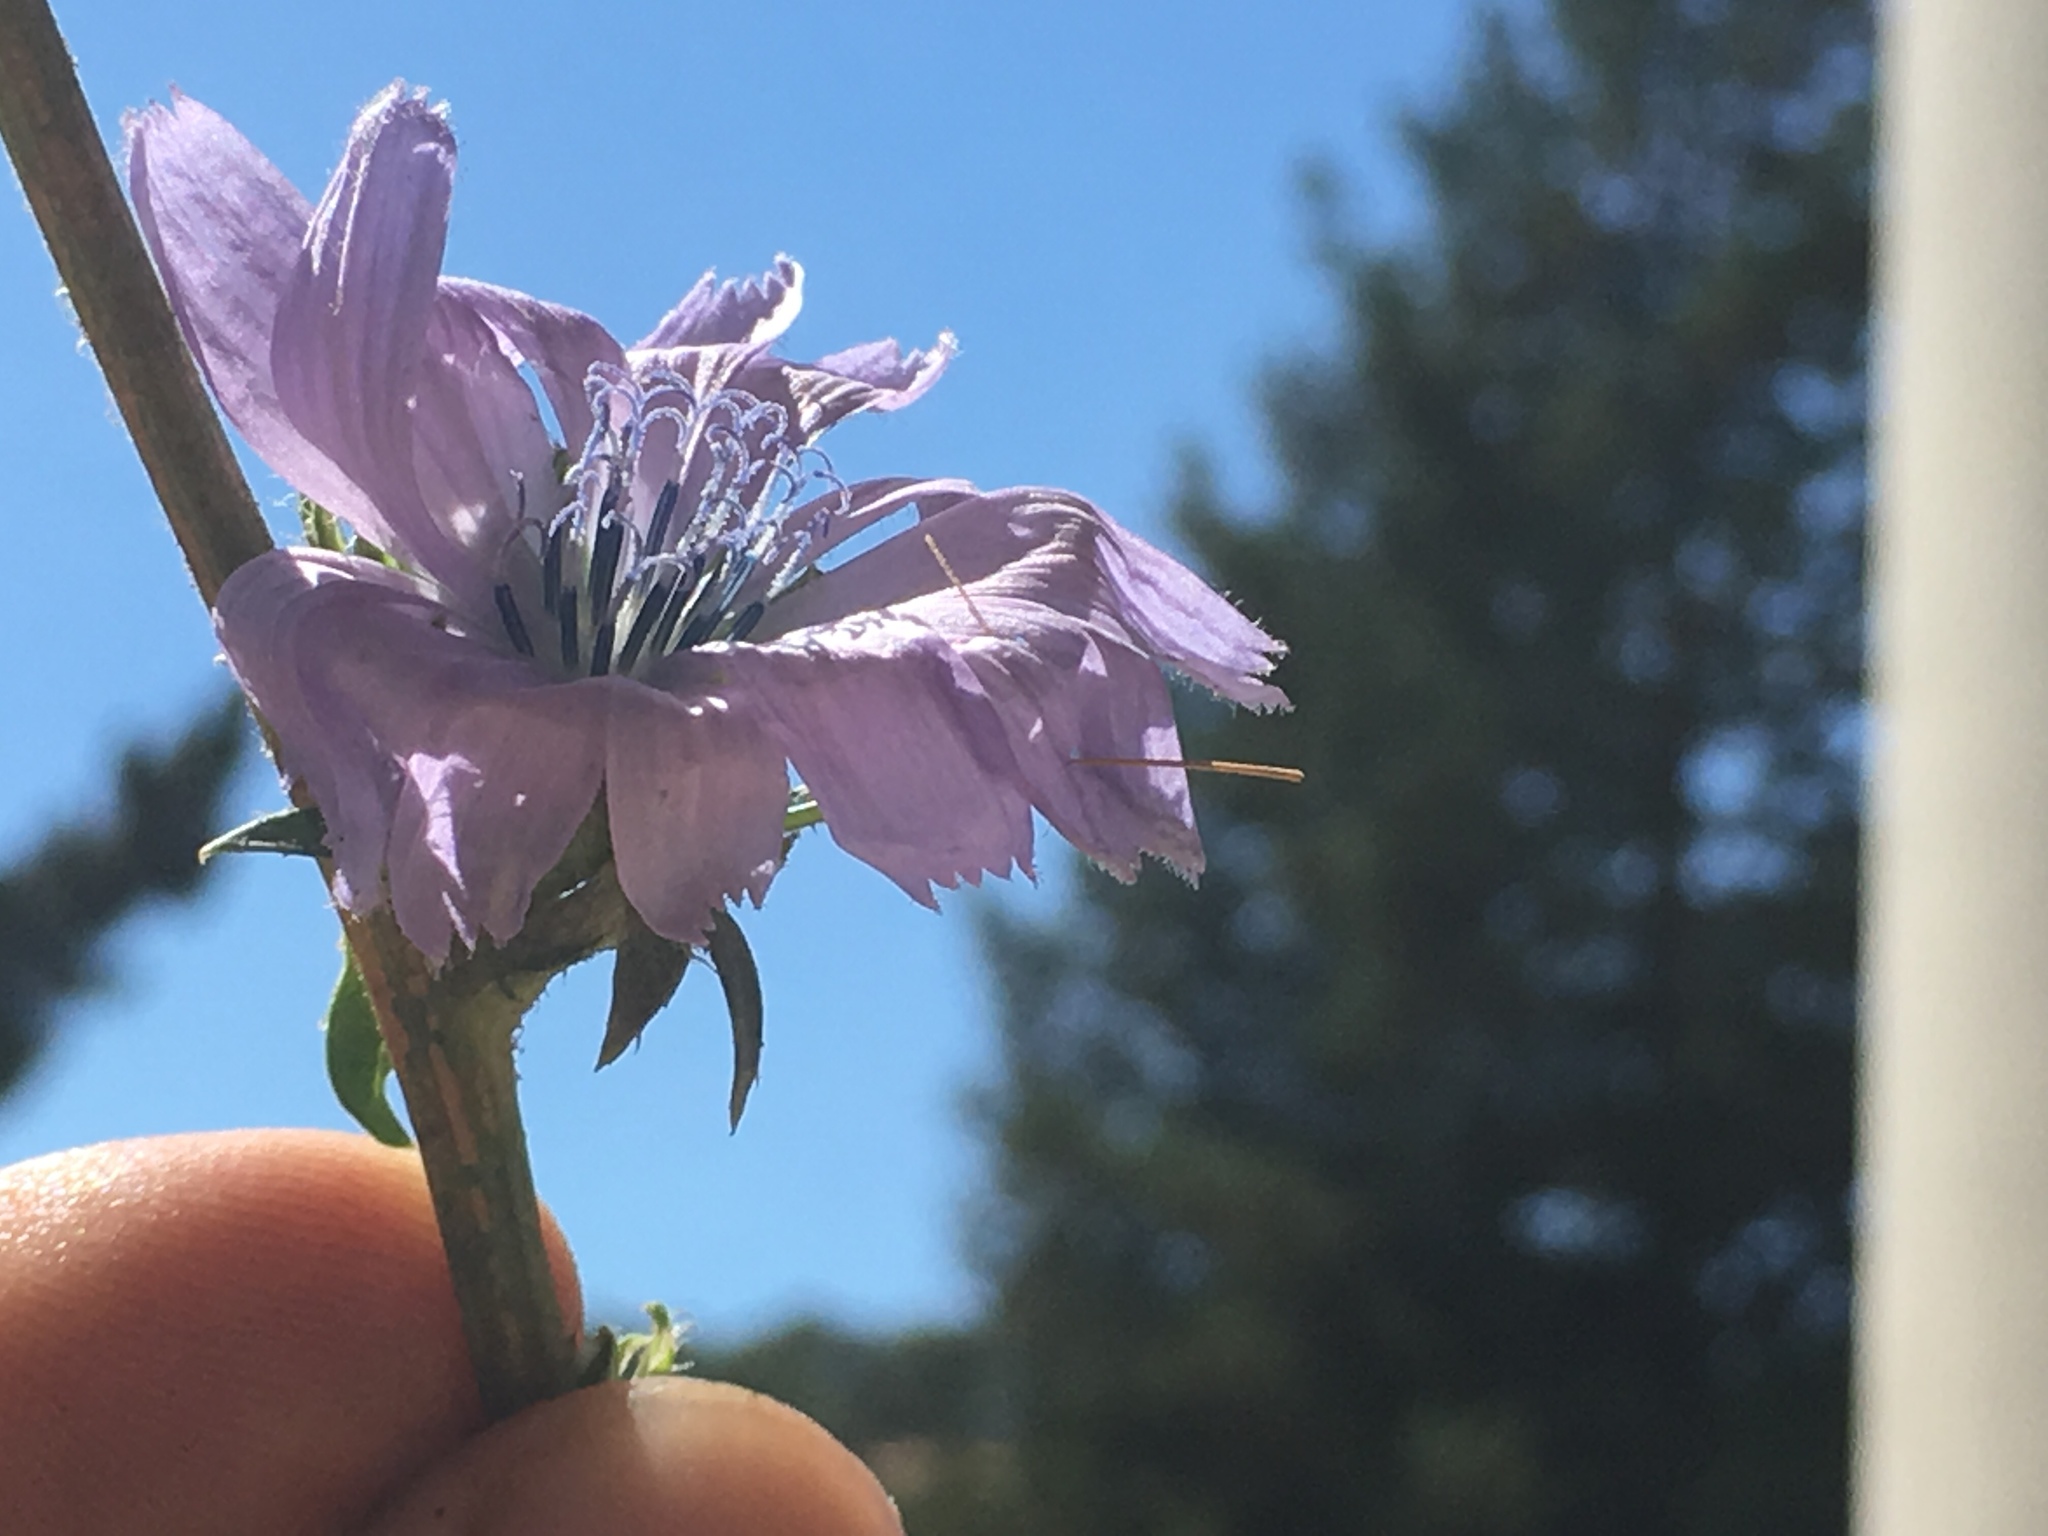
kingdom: Plantae
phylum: Tracheophyta
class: Magnoliopsida
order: Asterales
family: Asteraceae
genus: Cichorium
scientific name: Cichorium intybus
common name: Chicory
